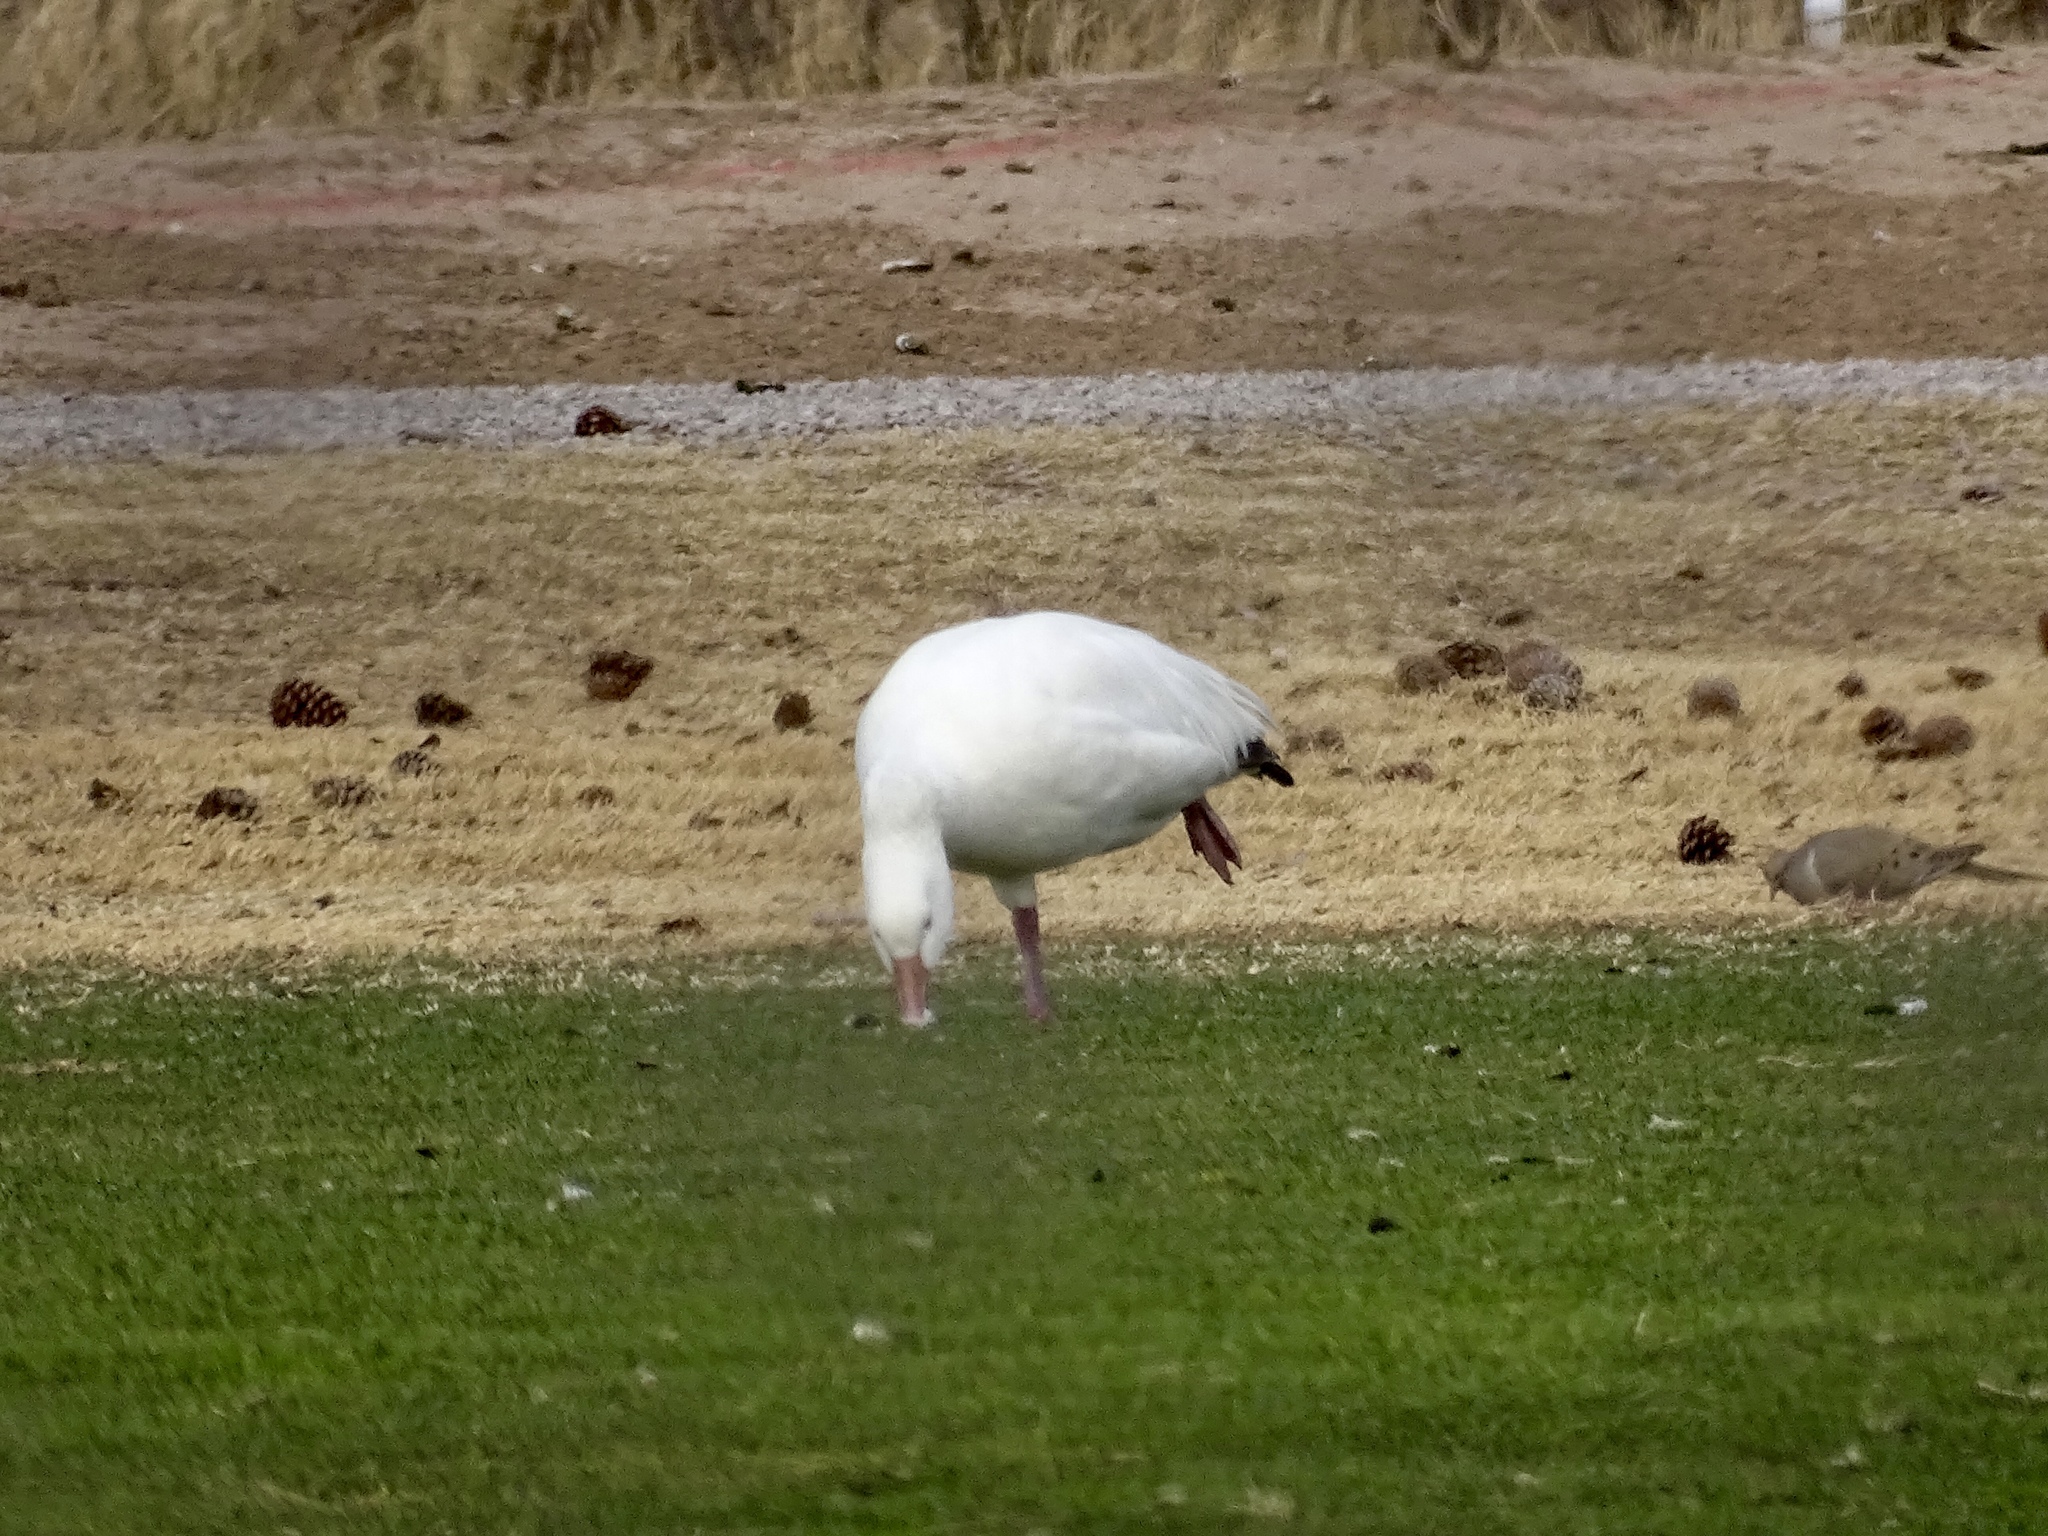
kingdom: Animalia
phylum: Chordata
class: Aves
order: Anseriformes
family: Anatidae
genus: Anser
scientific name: Anser caerulescens
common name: Snow goose
